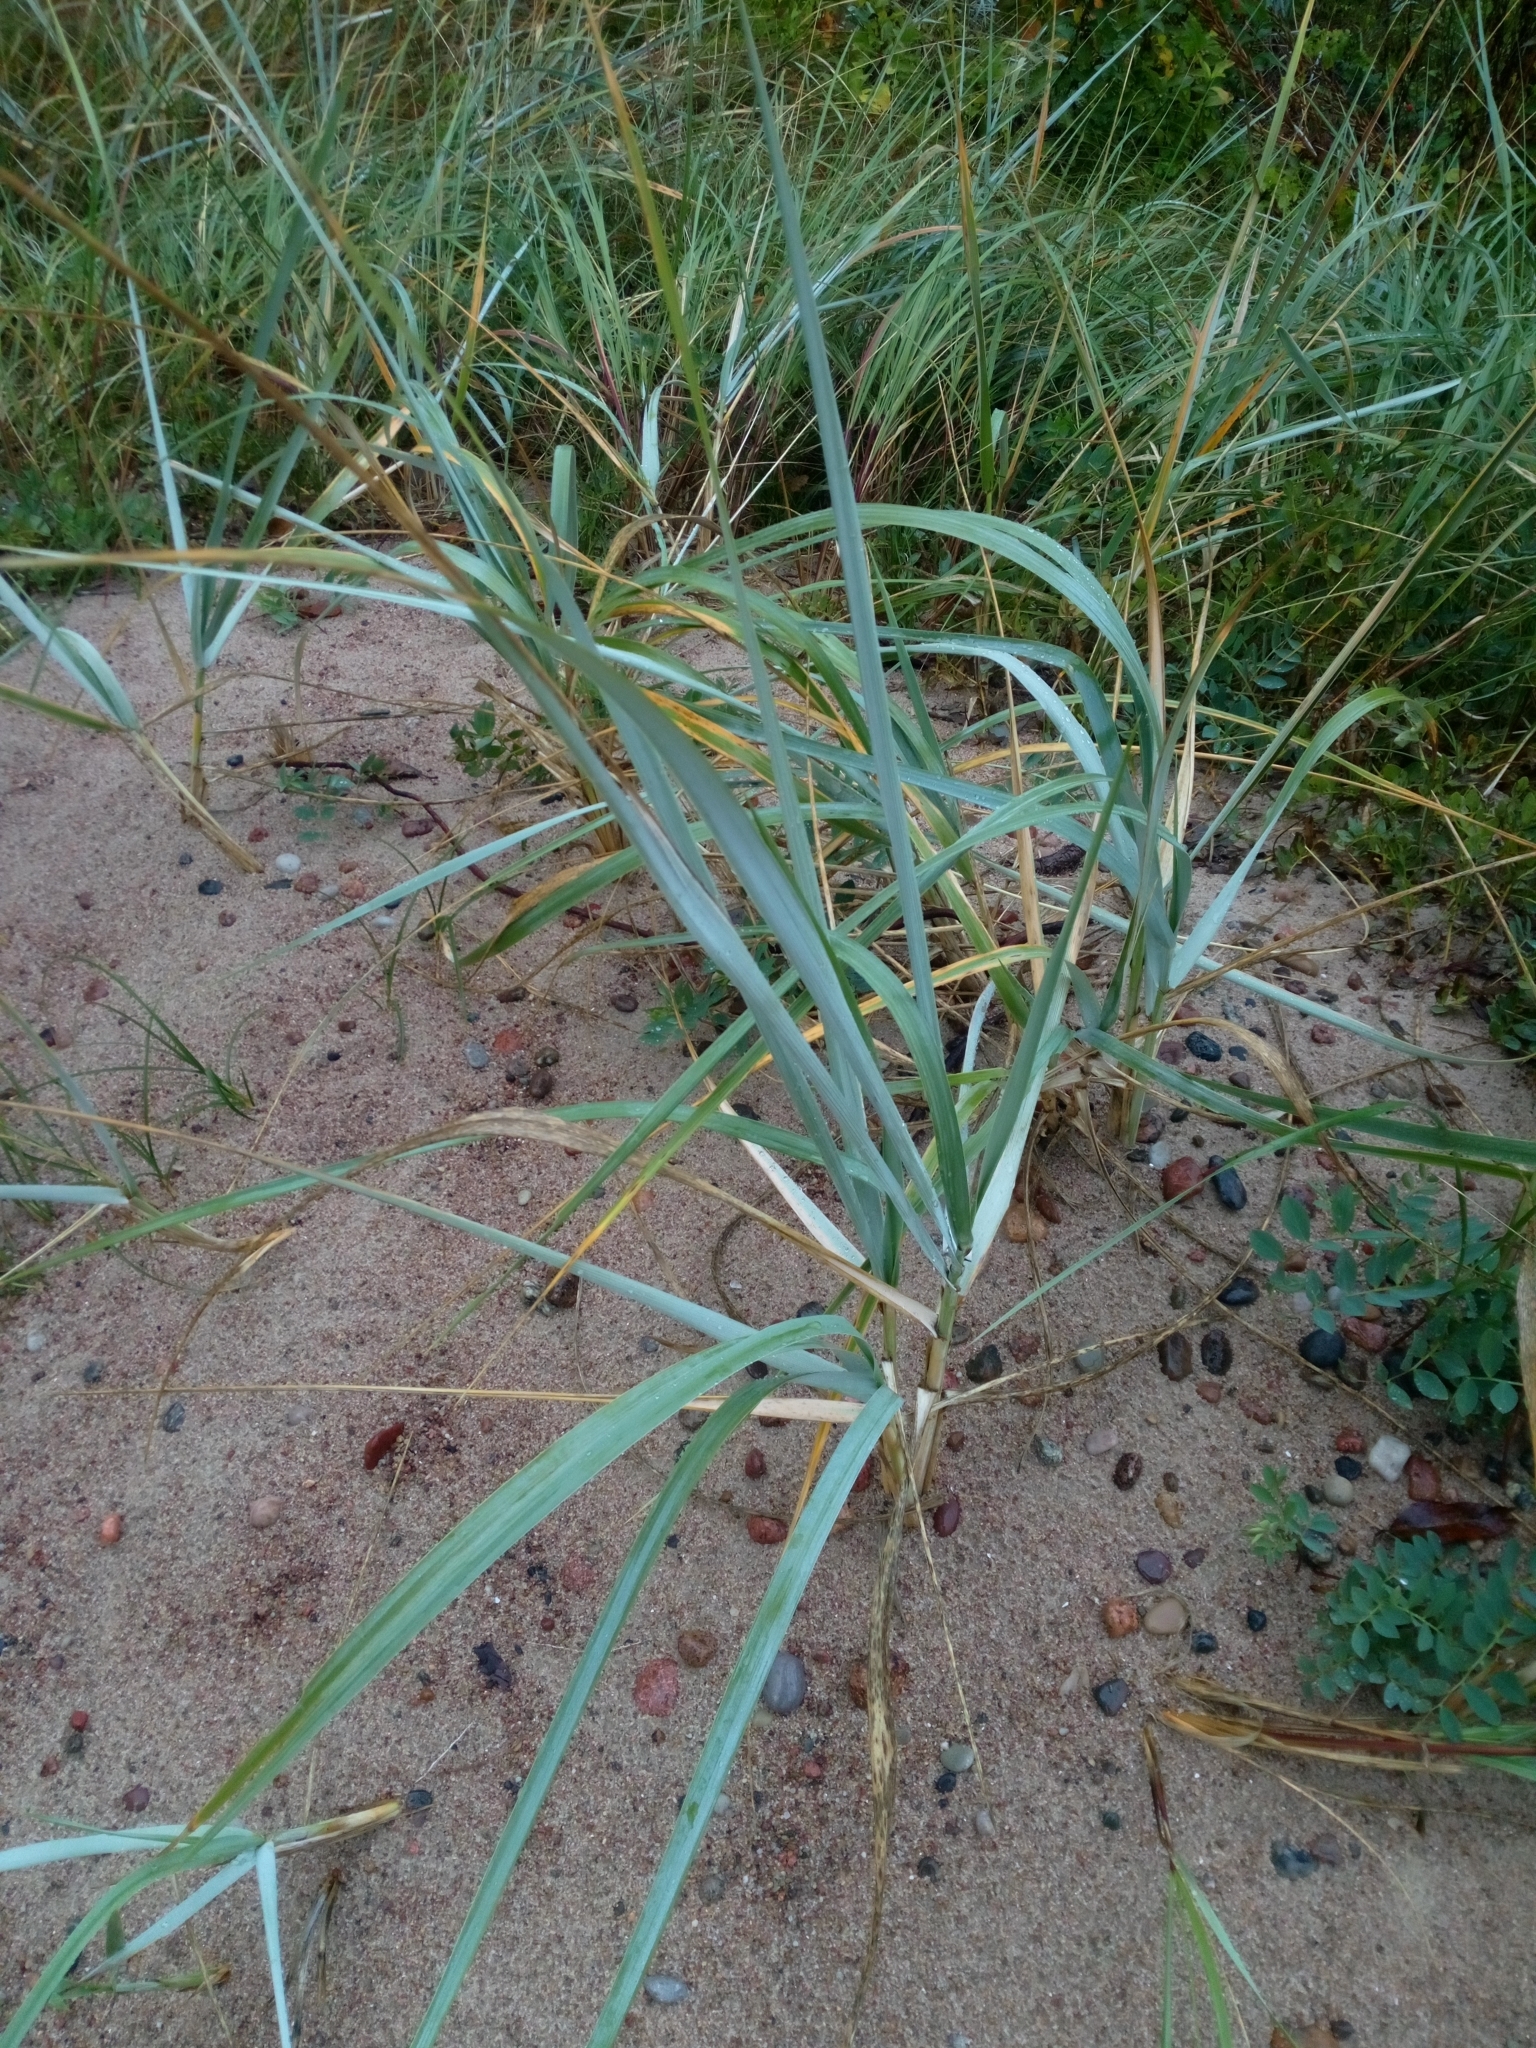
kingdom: Plantae
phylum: Tracheophyta
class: Liliopsida
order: Poales
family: Poaceae
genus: Leymus
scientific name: Leymus arenarius
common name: Lyme-grass
